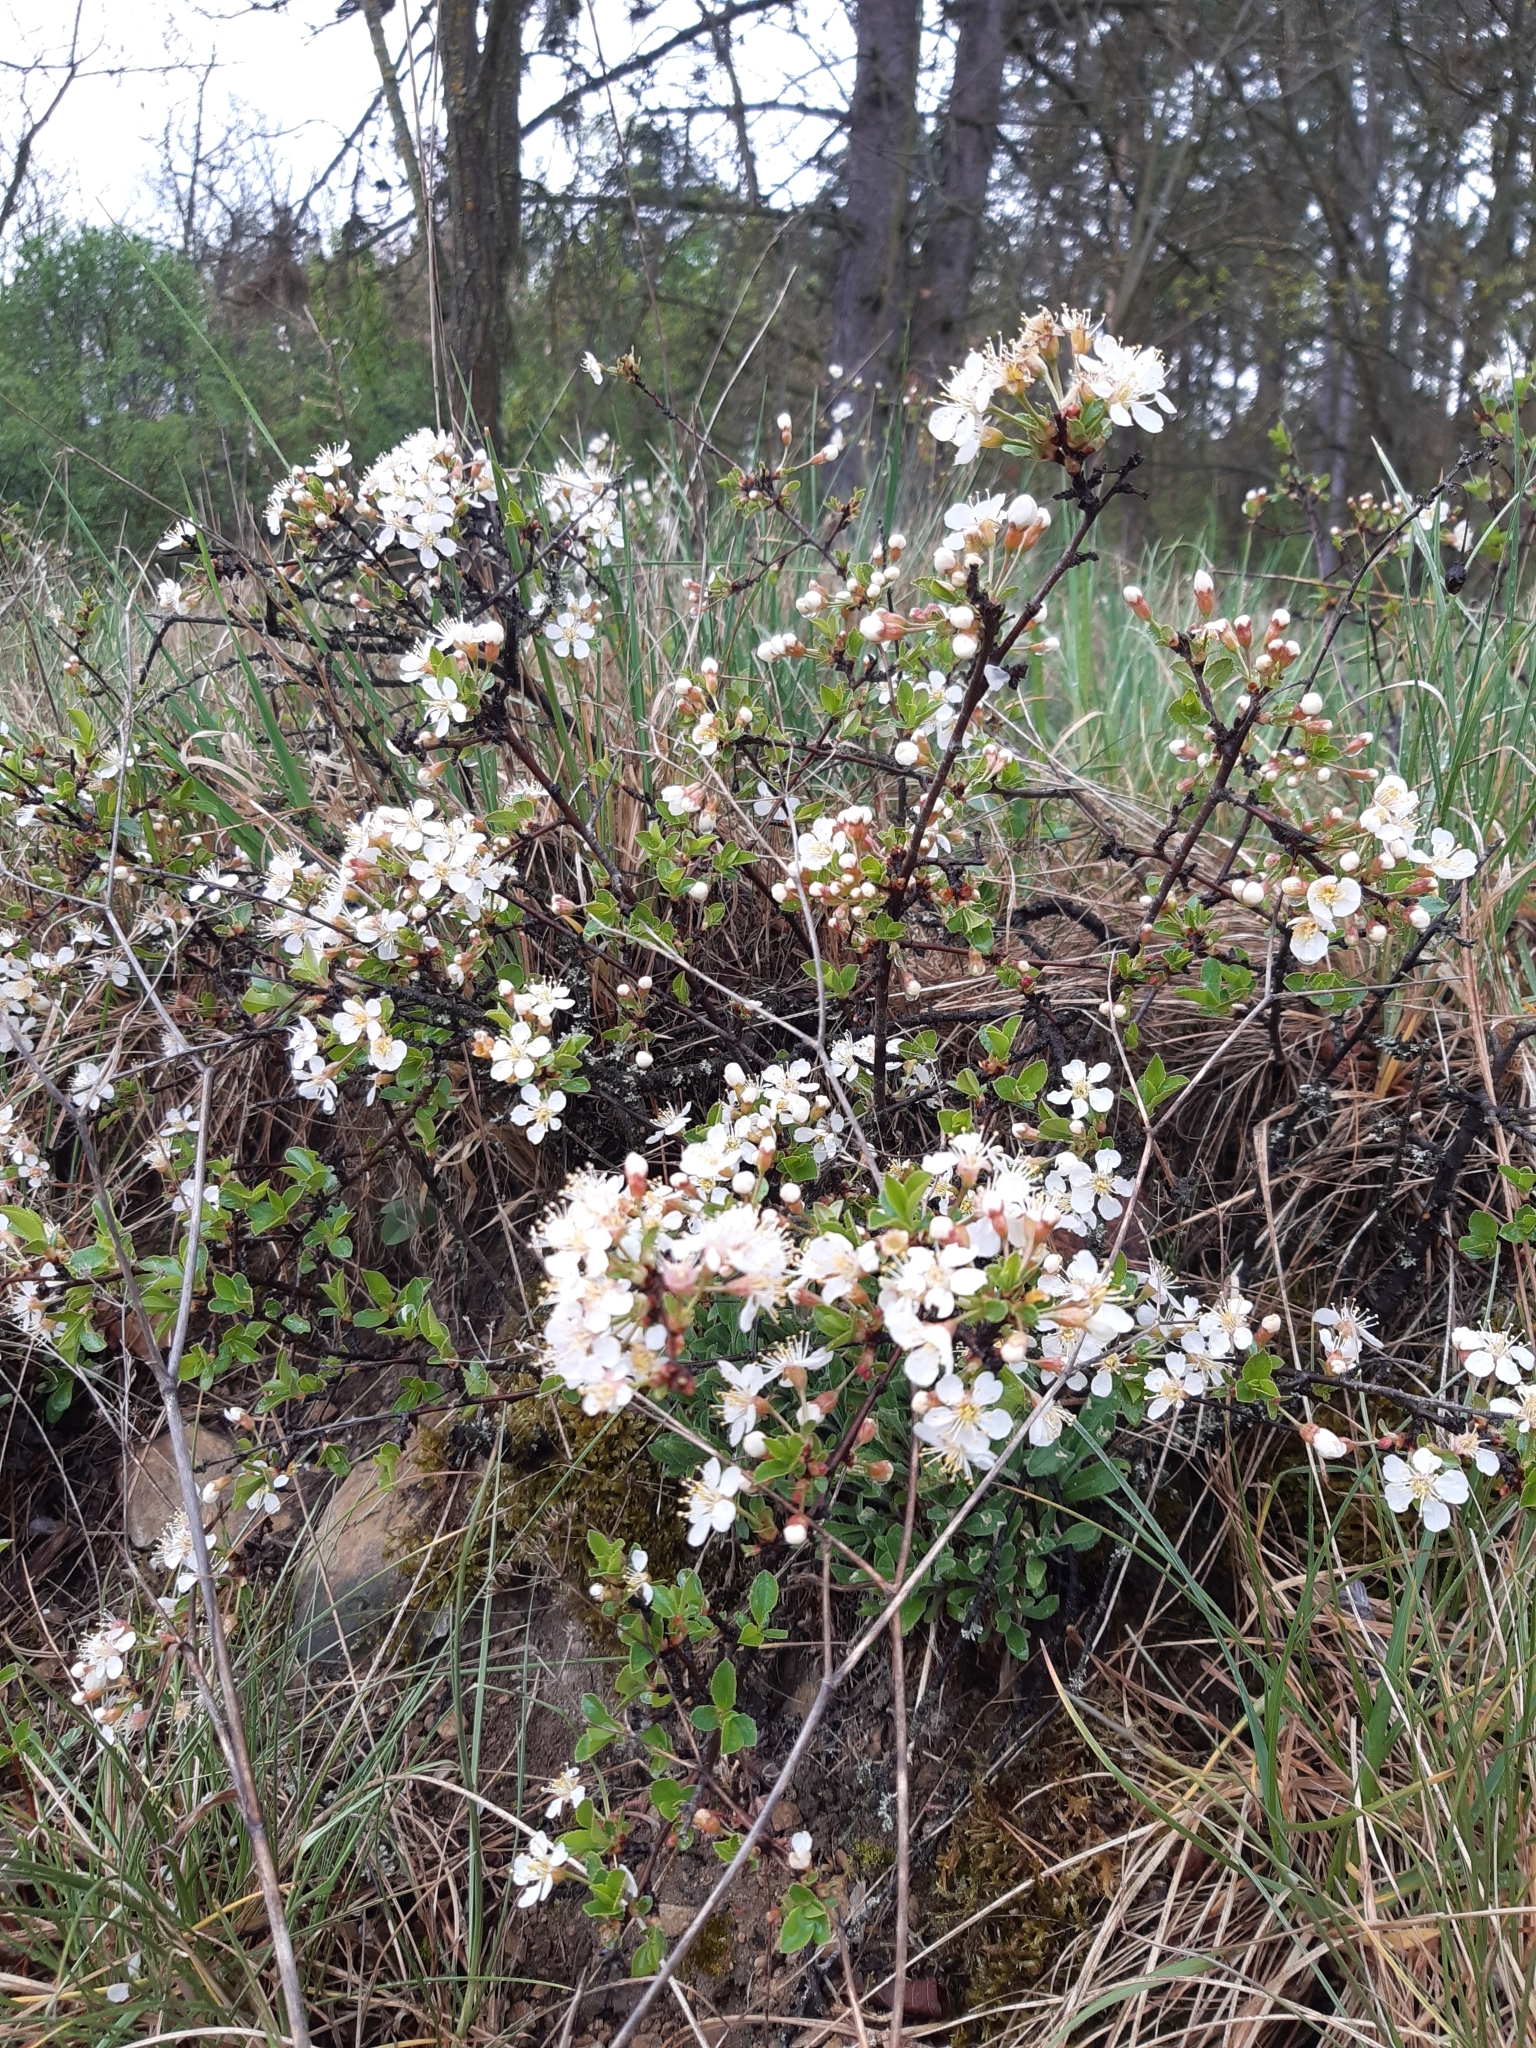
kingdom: Plantae
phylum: Tracheophyta
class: Magnoliopsida
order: Rosales
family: Rosaceae
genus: Prunus
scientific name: Prunus fruticosa
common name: European dwarf cherry
